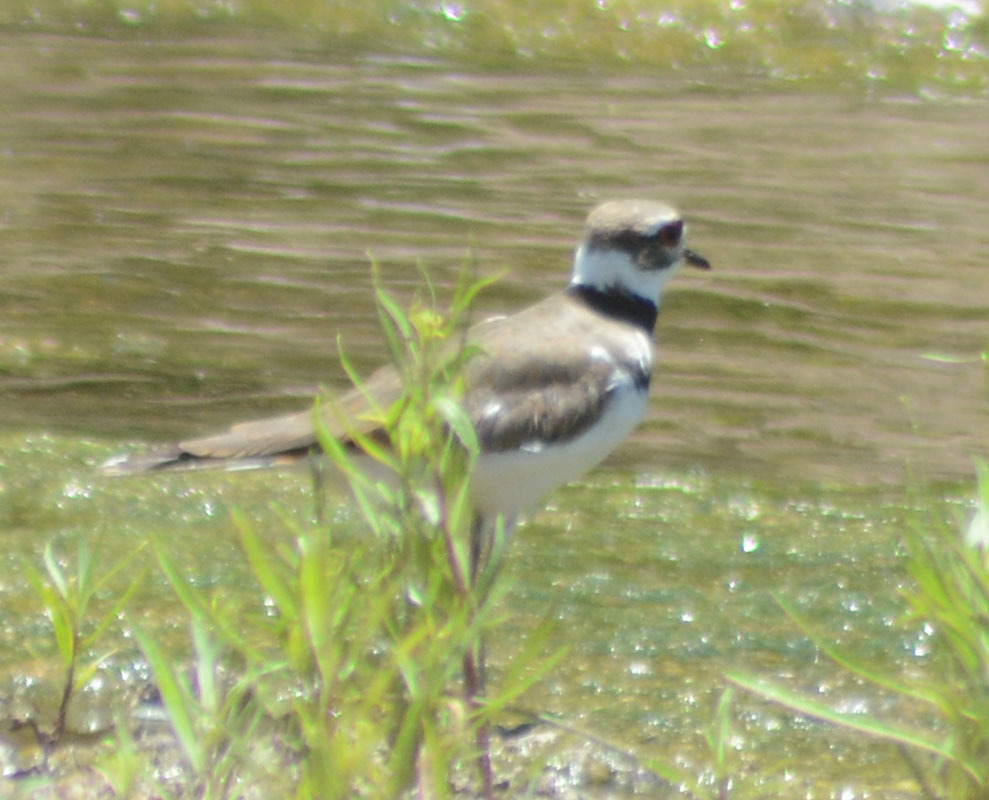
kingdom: Animalia
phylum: Chordata
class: Aves
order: Charadriiformes
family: Charadriidae
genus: Charadrius
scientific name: Charadrius vociferus
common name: Killdeer
